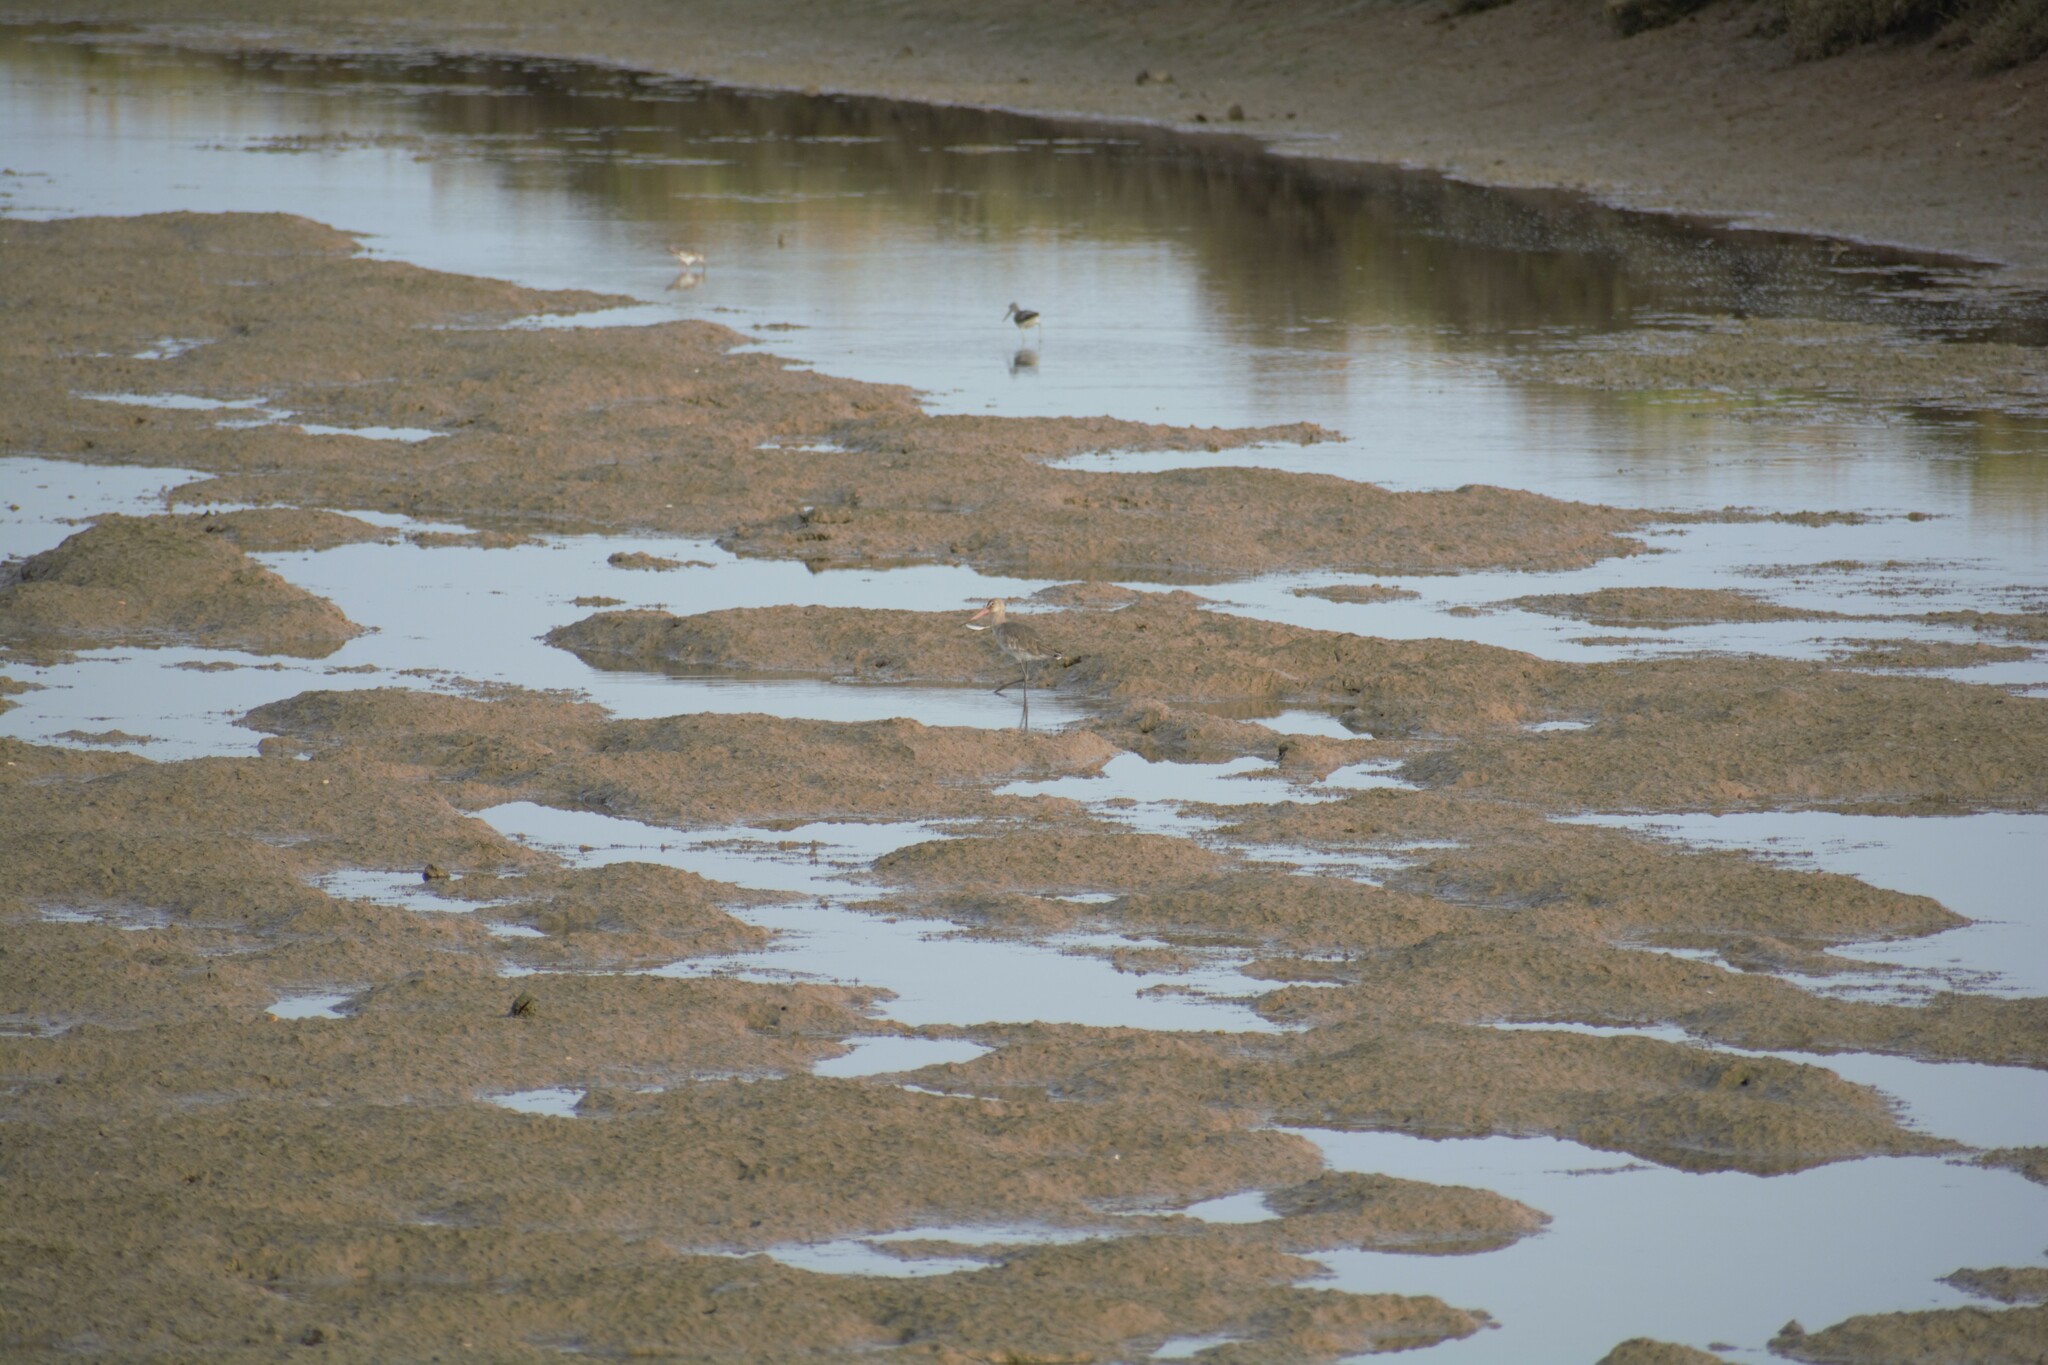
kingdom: Animalia
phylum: Chordata
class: Aves
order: Charadriiformes
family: Scolopacidae
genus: Limosa
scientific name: Limosa limosa
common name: Black-tailed godwit
